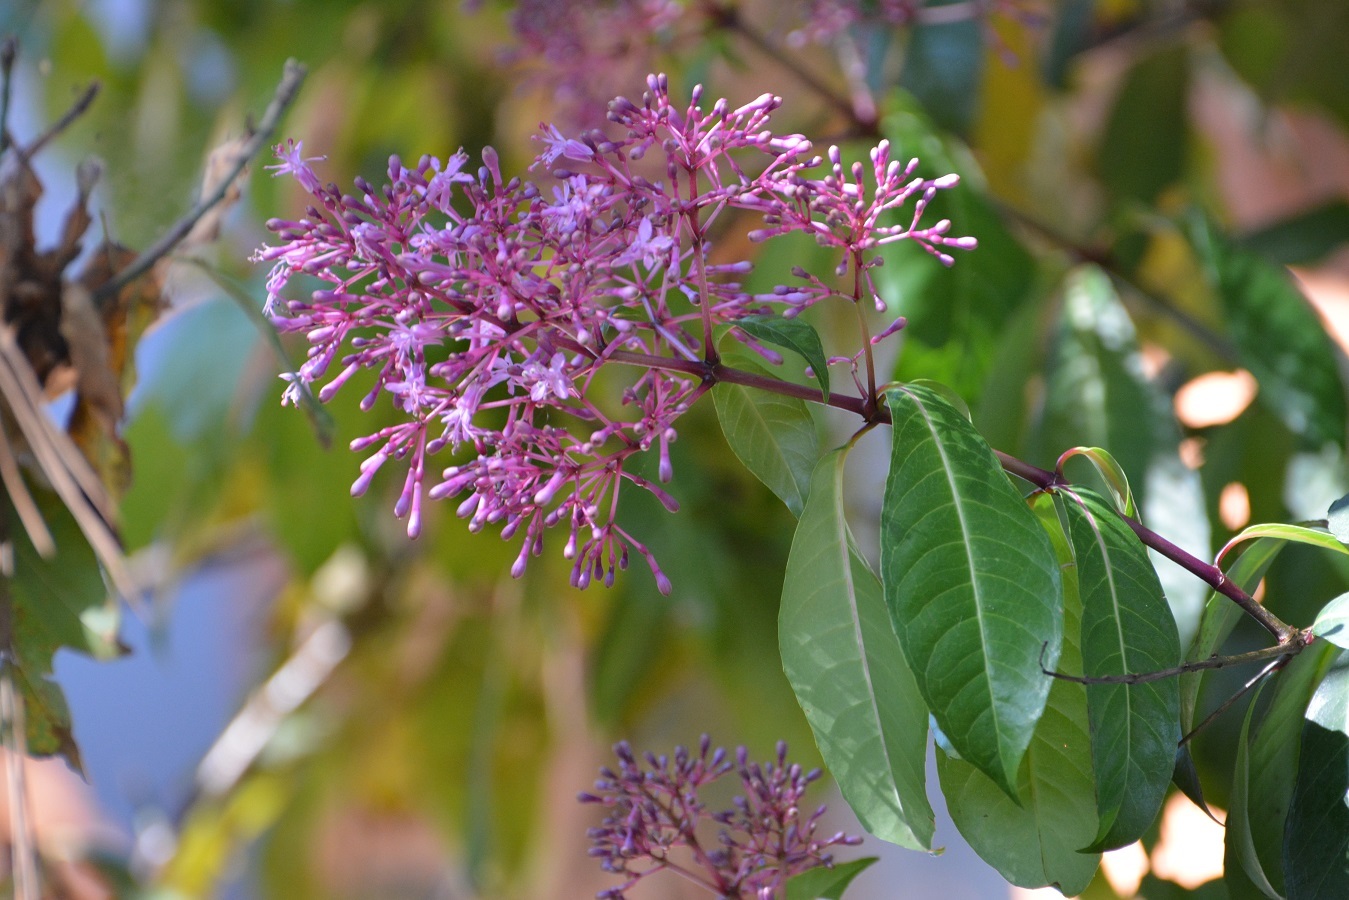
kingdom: Plantae
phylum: Tracheophyta
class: Magnoliopsida
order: Myrtales
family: Onagraceae
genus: Fuchsia
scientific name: Fuchsia paniculata
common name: Shrubby fuchsia
